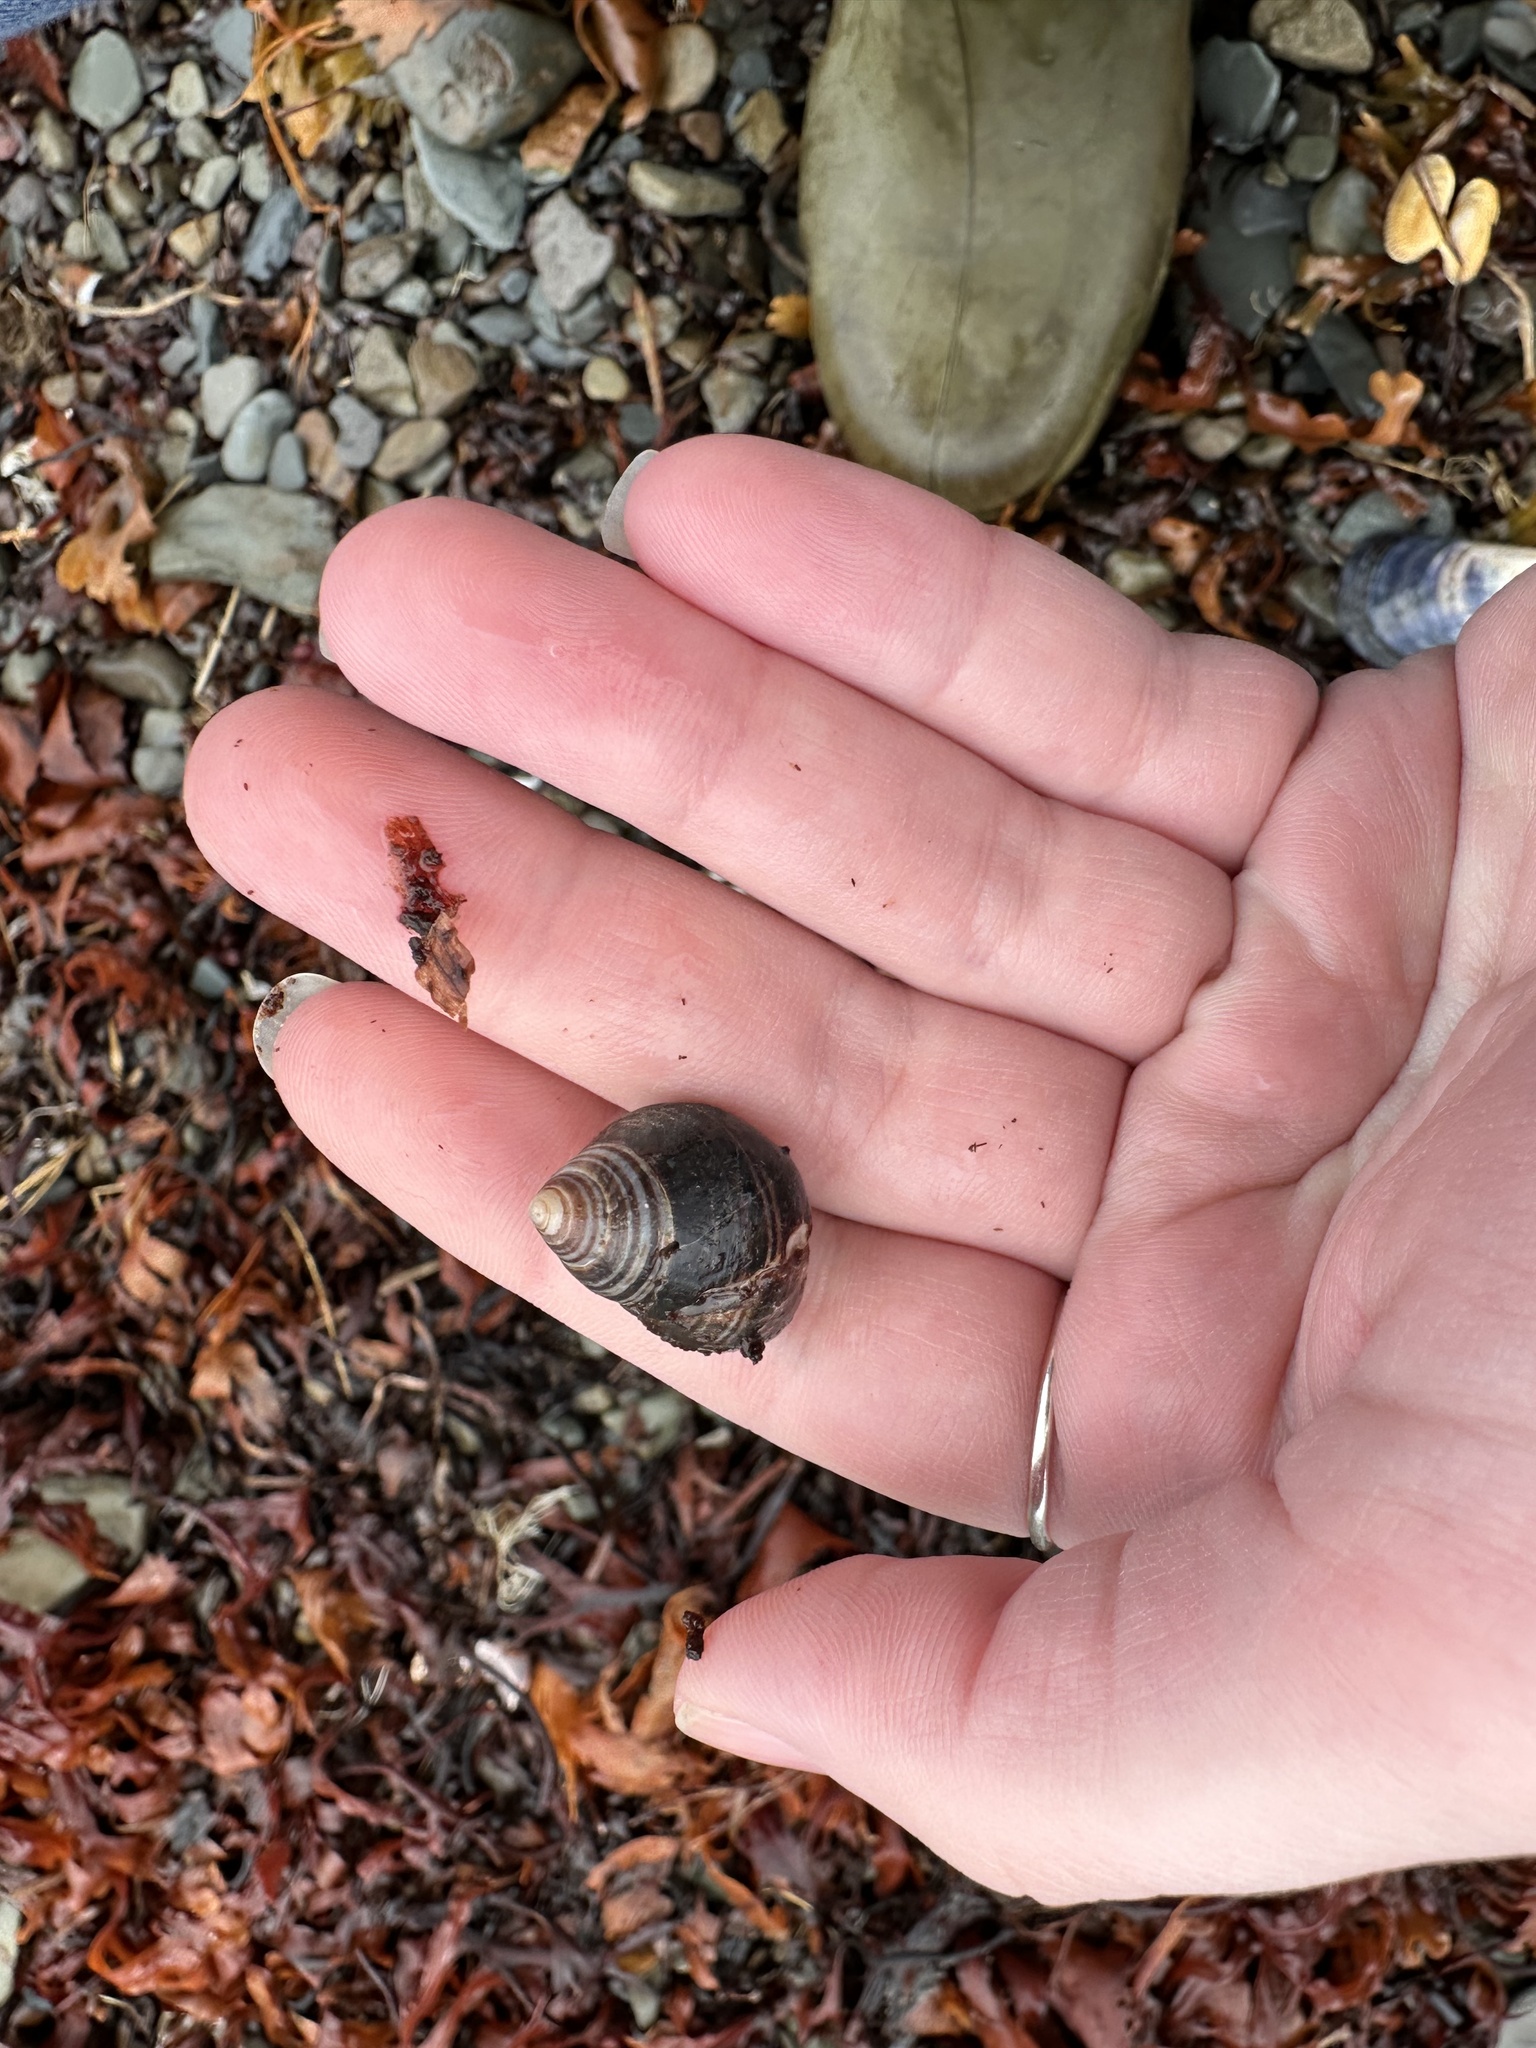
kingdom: Animalia
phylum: Mollusca
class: Gastropoda
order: Littorinimorpha
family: Littorinidae
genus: Littorina
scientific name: Littorina littorea
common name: Common periwinkle
